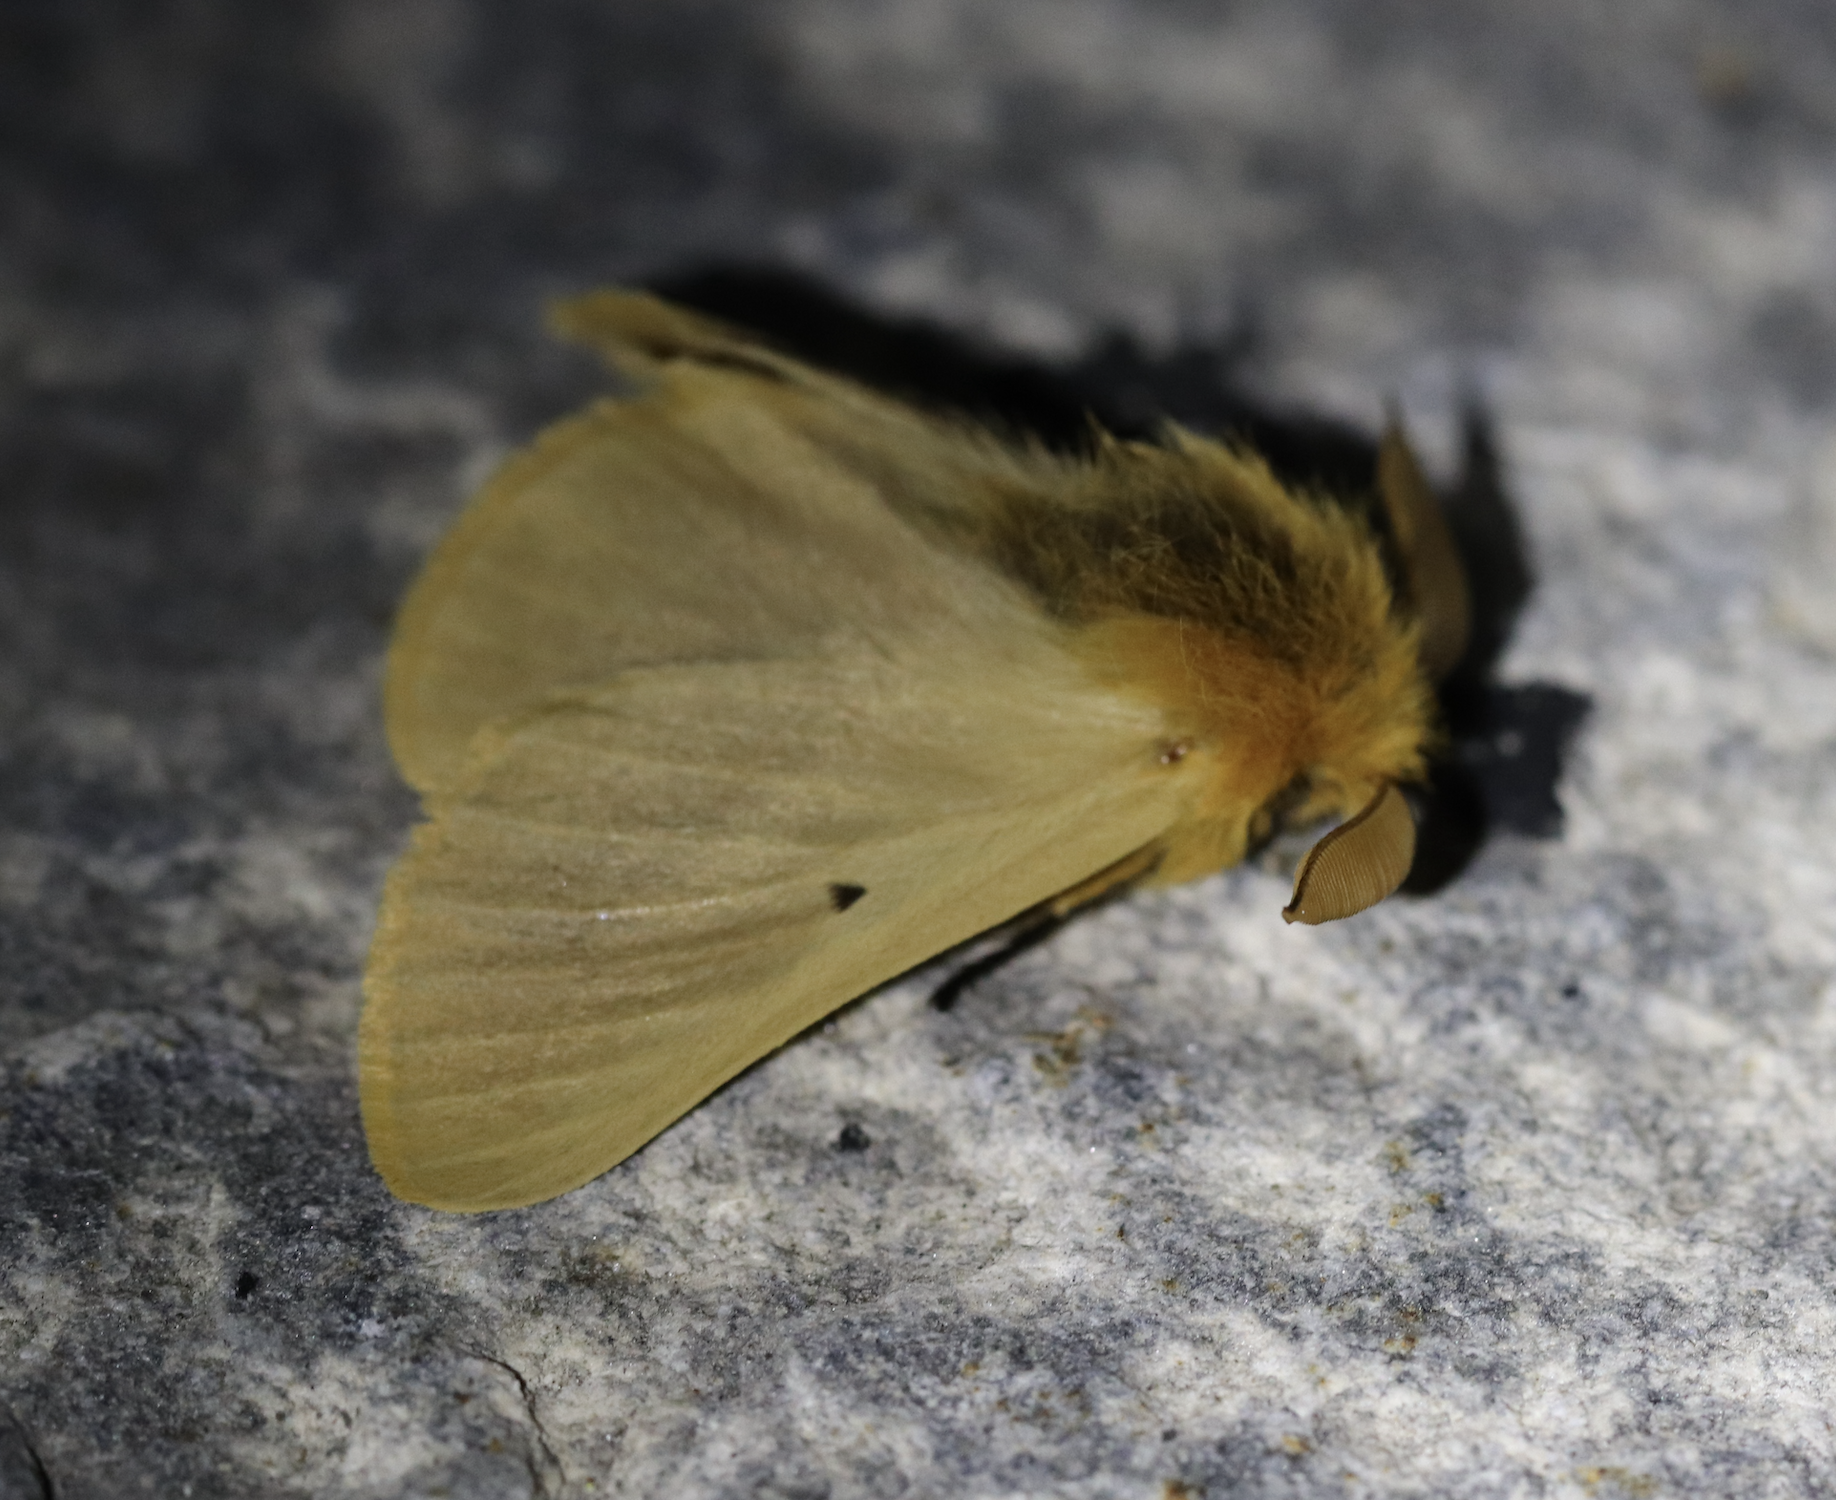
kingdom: Animalia
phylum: Arthropoda
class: Insecta
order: Lepidoptera
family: Brahmaeidae
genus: Lemonia
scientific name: Lemonia taraxaci
